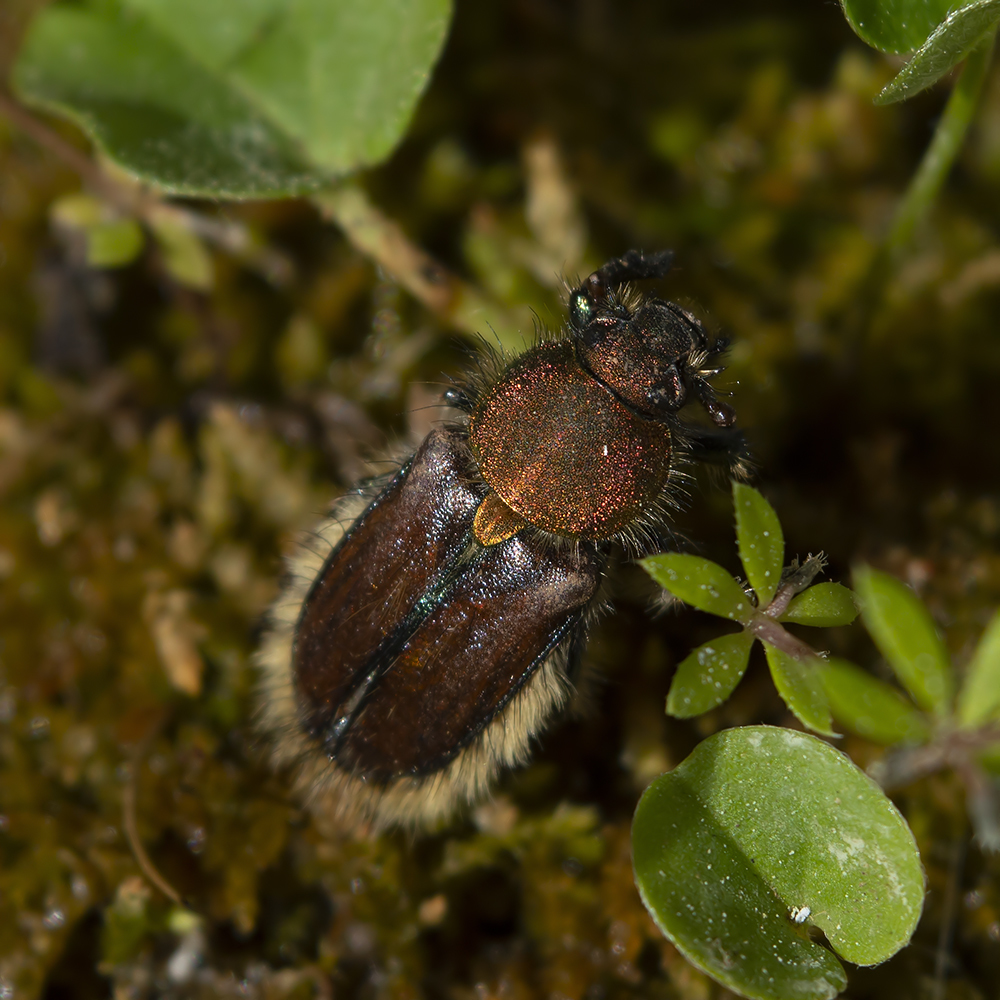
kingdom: Animalia
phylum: Arthropoda
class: Insecta
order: Coleoptera
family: Glaphyridae
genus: Pygopleurus
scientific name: Pygopleurus chrysonotus
